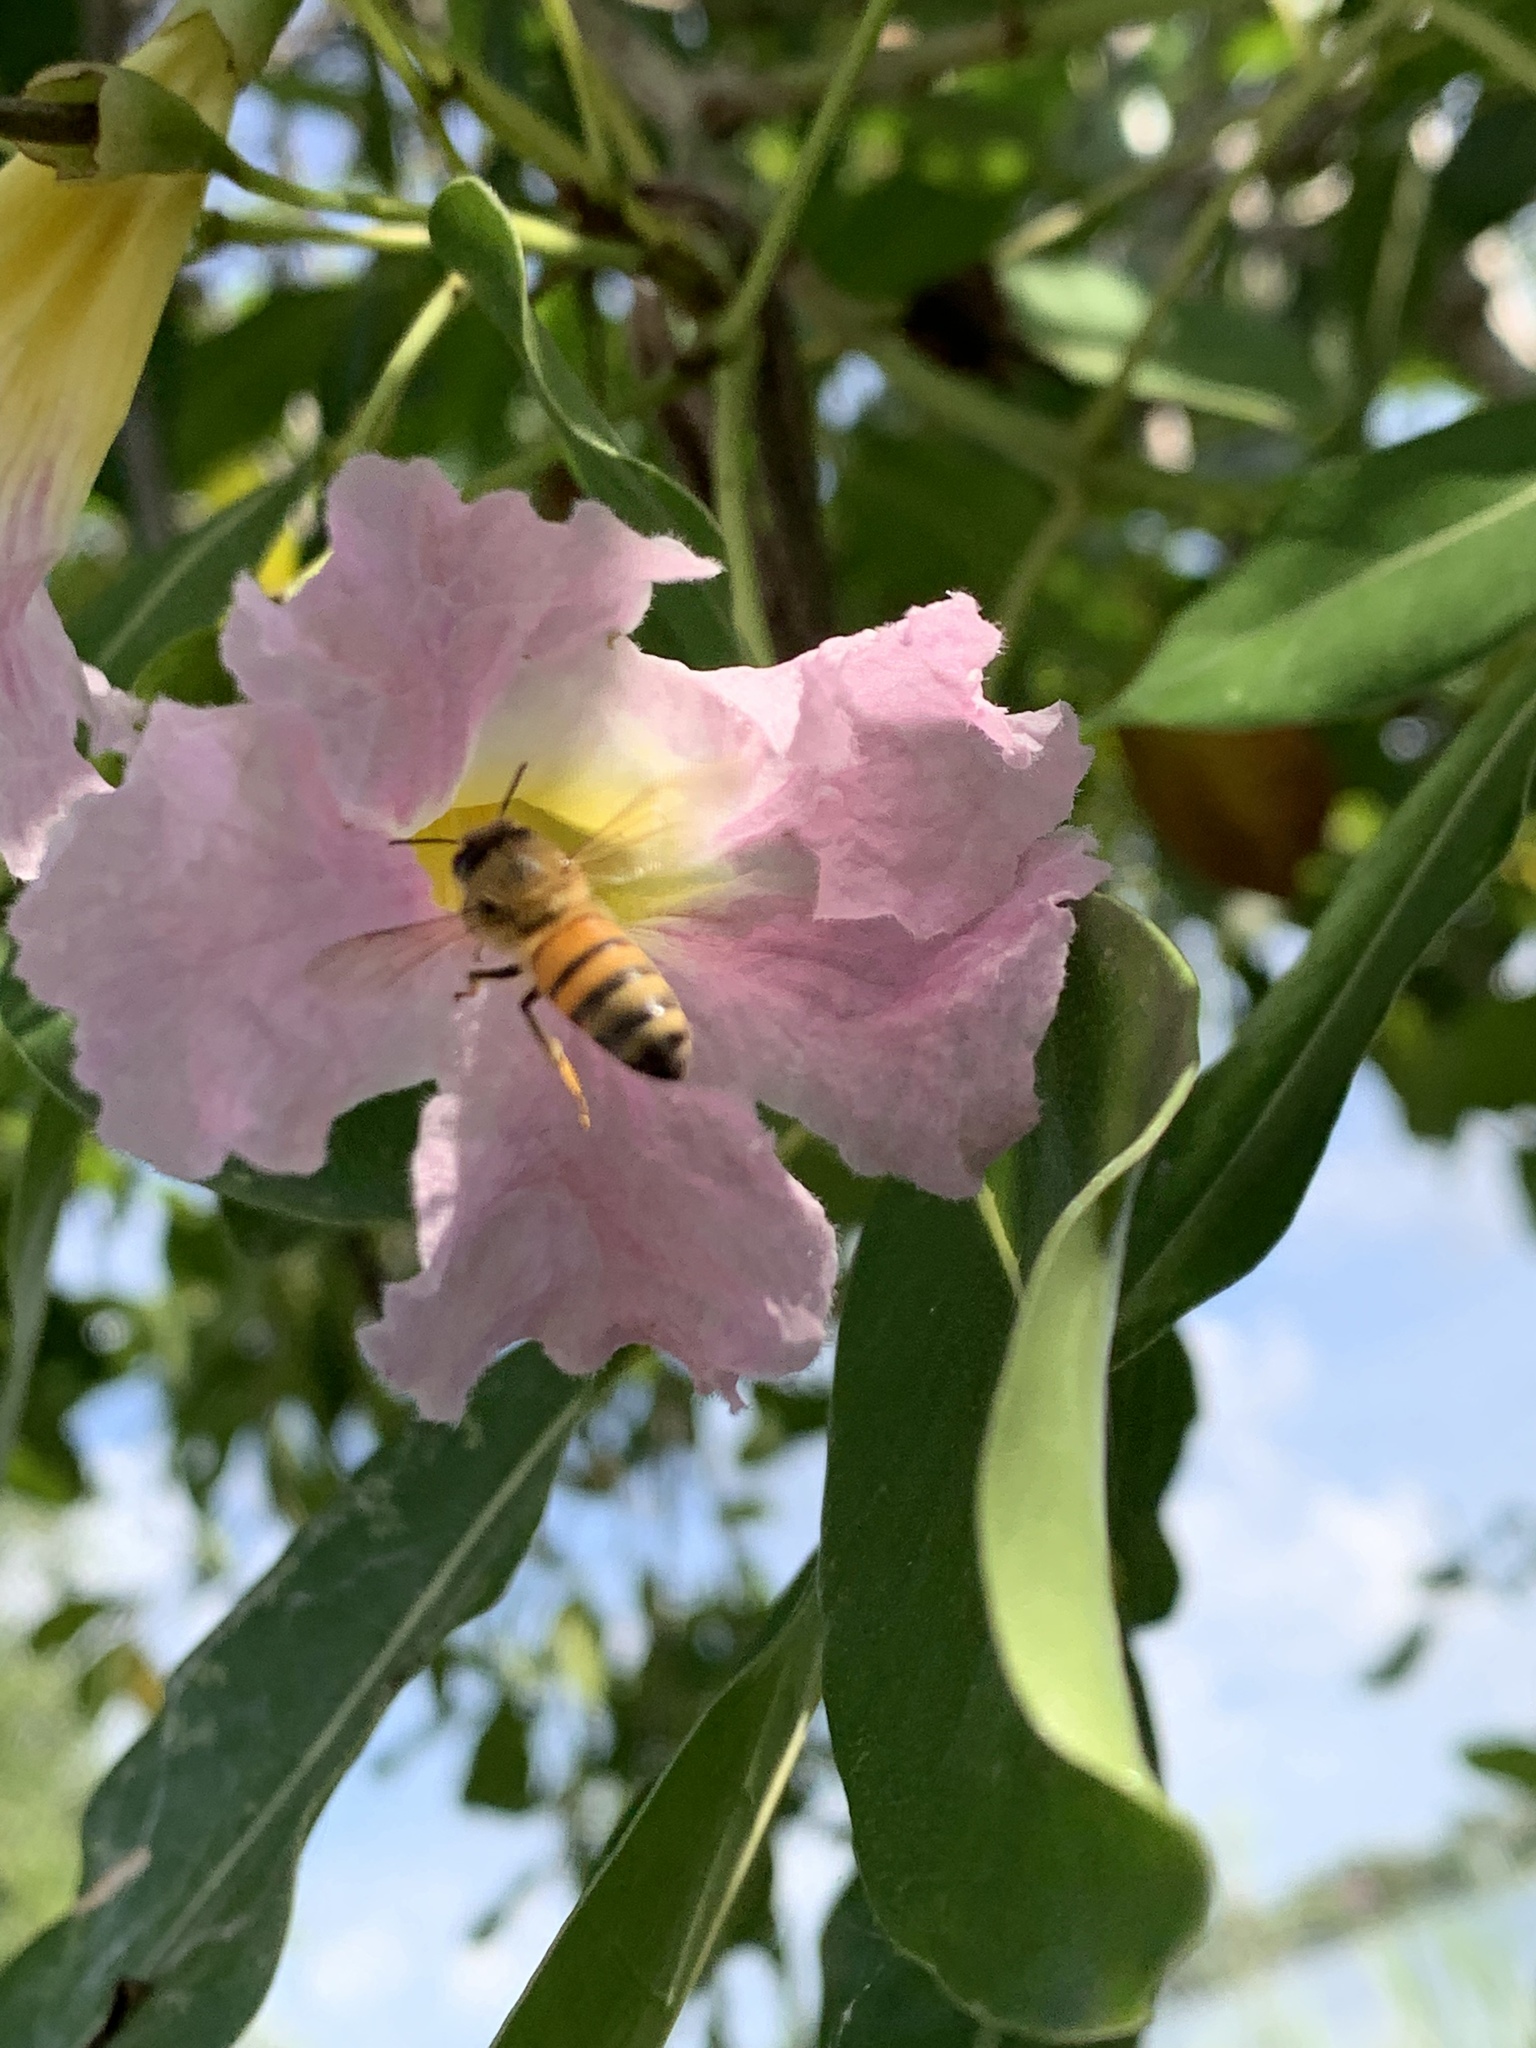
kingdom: Animalia
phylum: Arthropoda
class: Insecta
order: Hymenoptera
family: Apidae
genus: Apis
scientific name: Apis mellifera
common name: Honey bee
